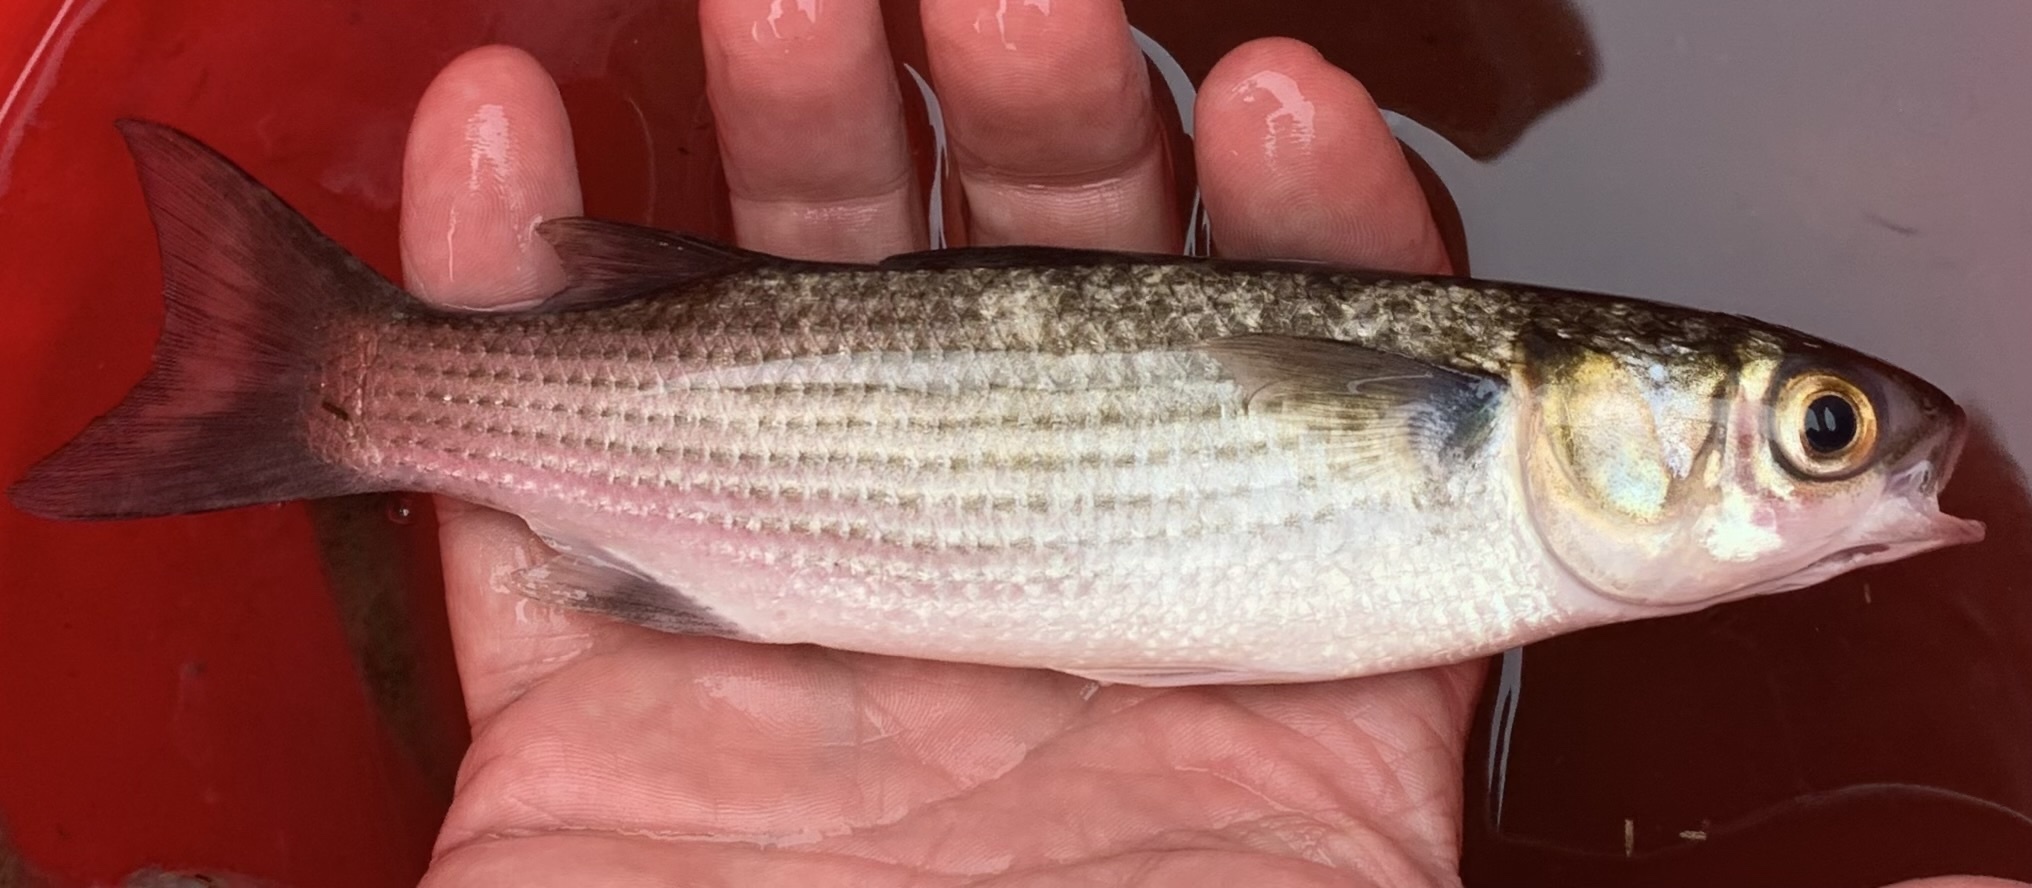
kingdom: Animalia
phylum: Chordata
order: Mugiliformes
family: Mugilidae
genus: Mugil
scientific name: Mugil cephalus
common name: Grey mullet
